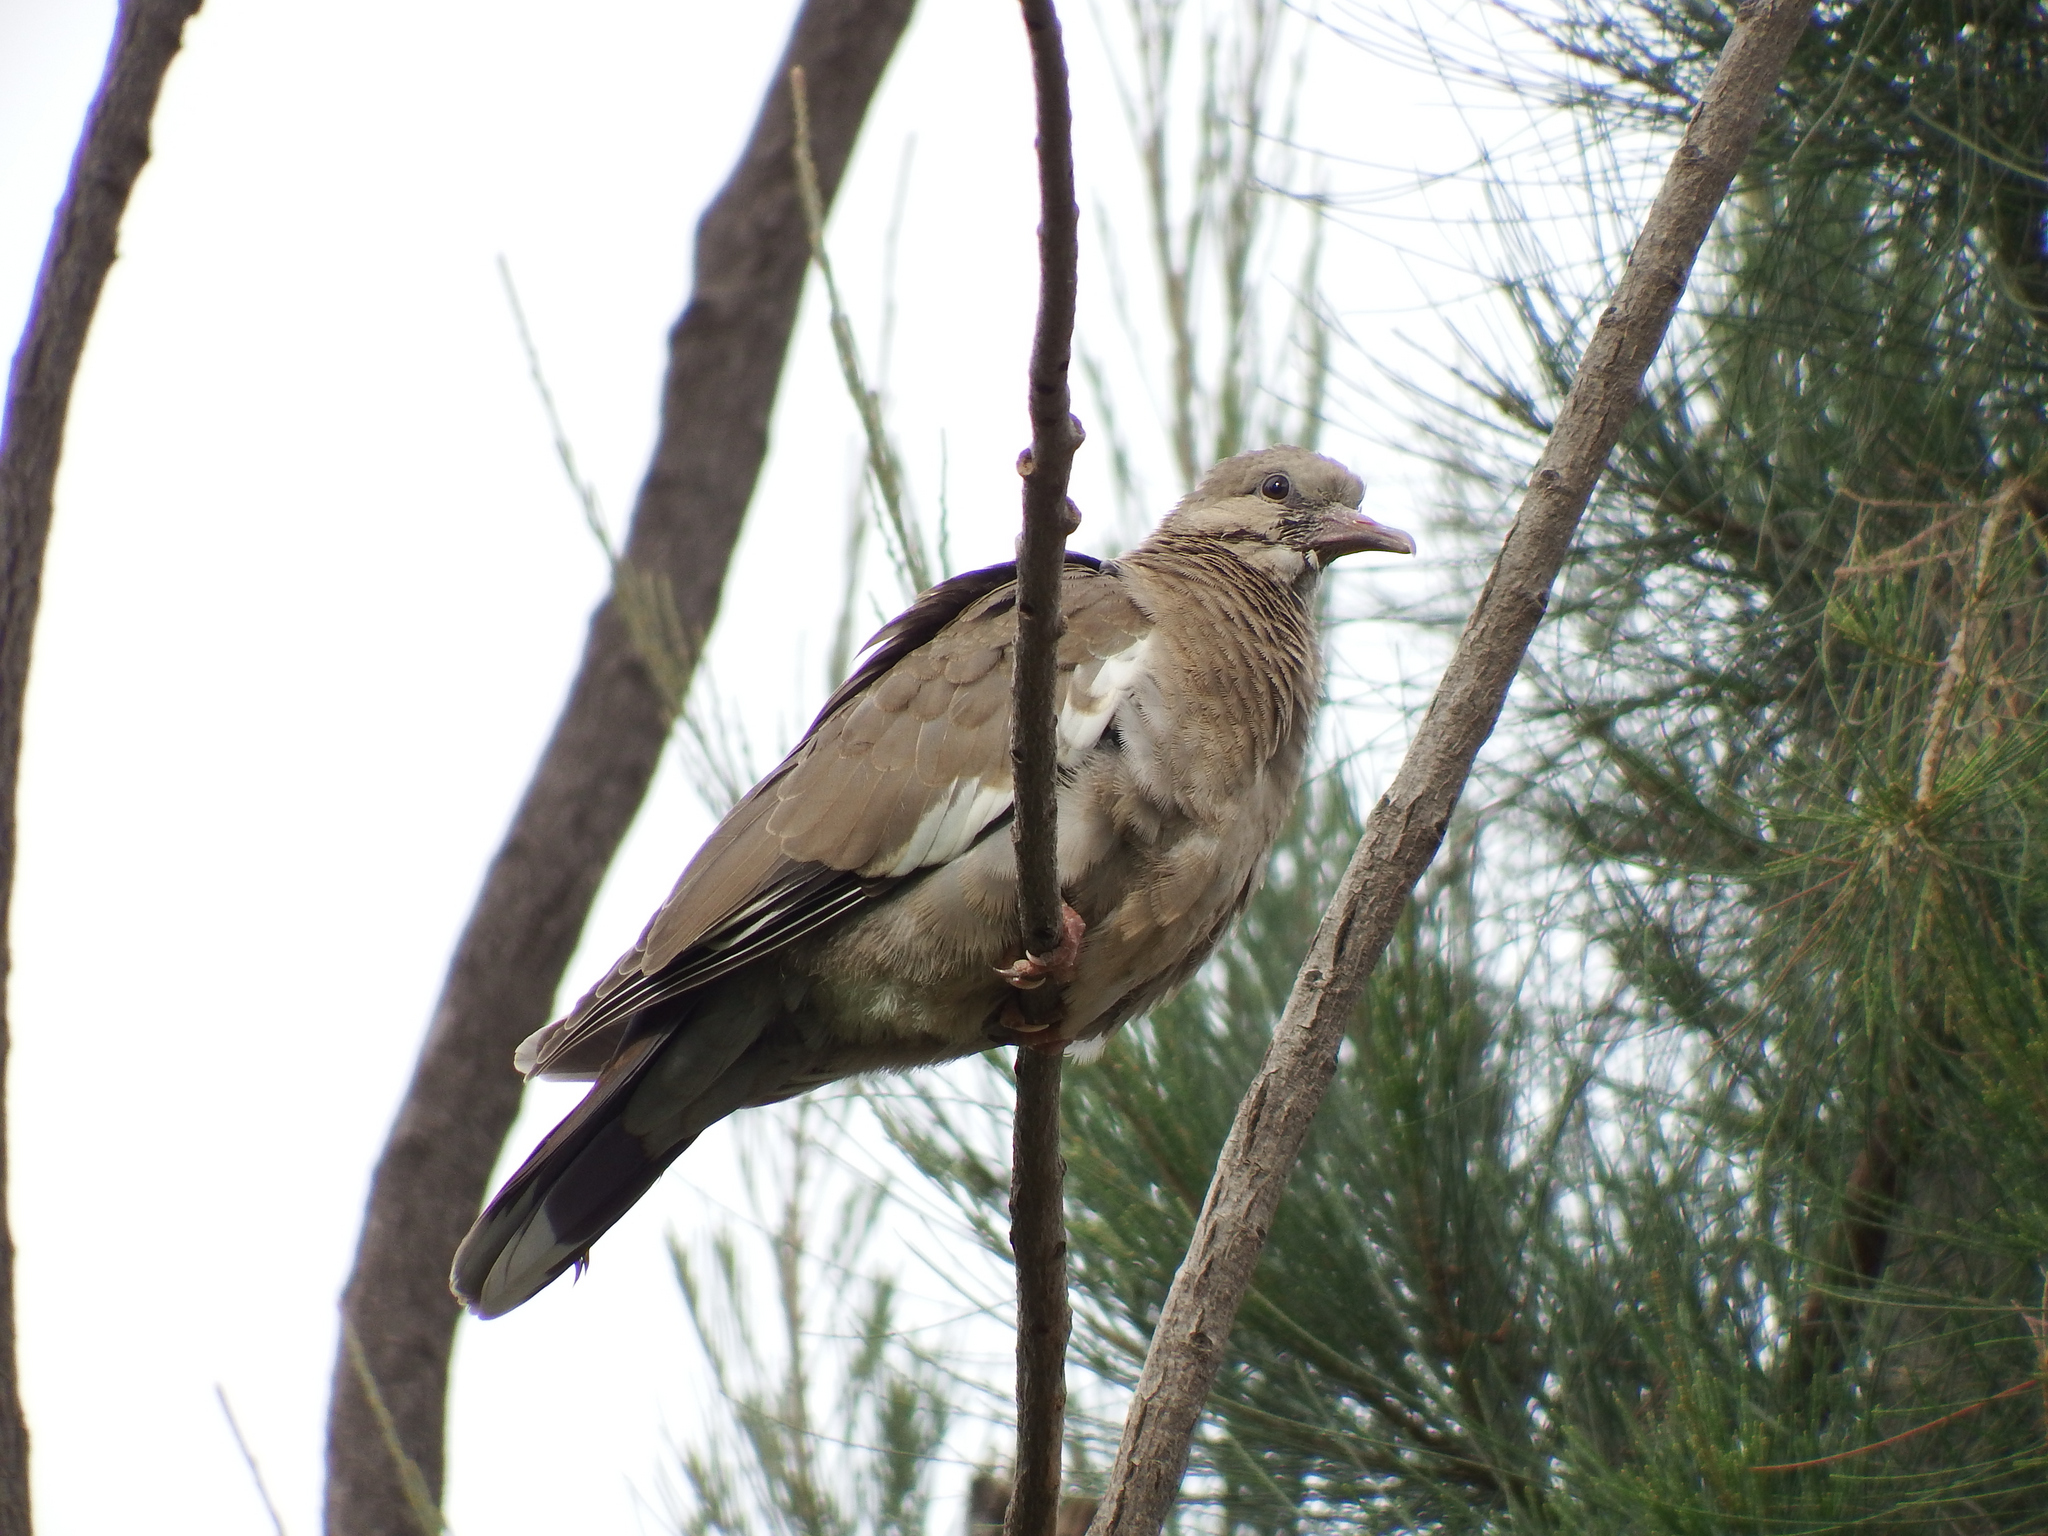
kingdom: Animalia
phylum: Chordata
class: Aves
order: Columbiformes
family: Columbidae
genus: Zenaida
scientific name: Zenaida meloda
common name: West peruvian dove
